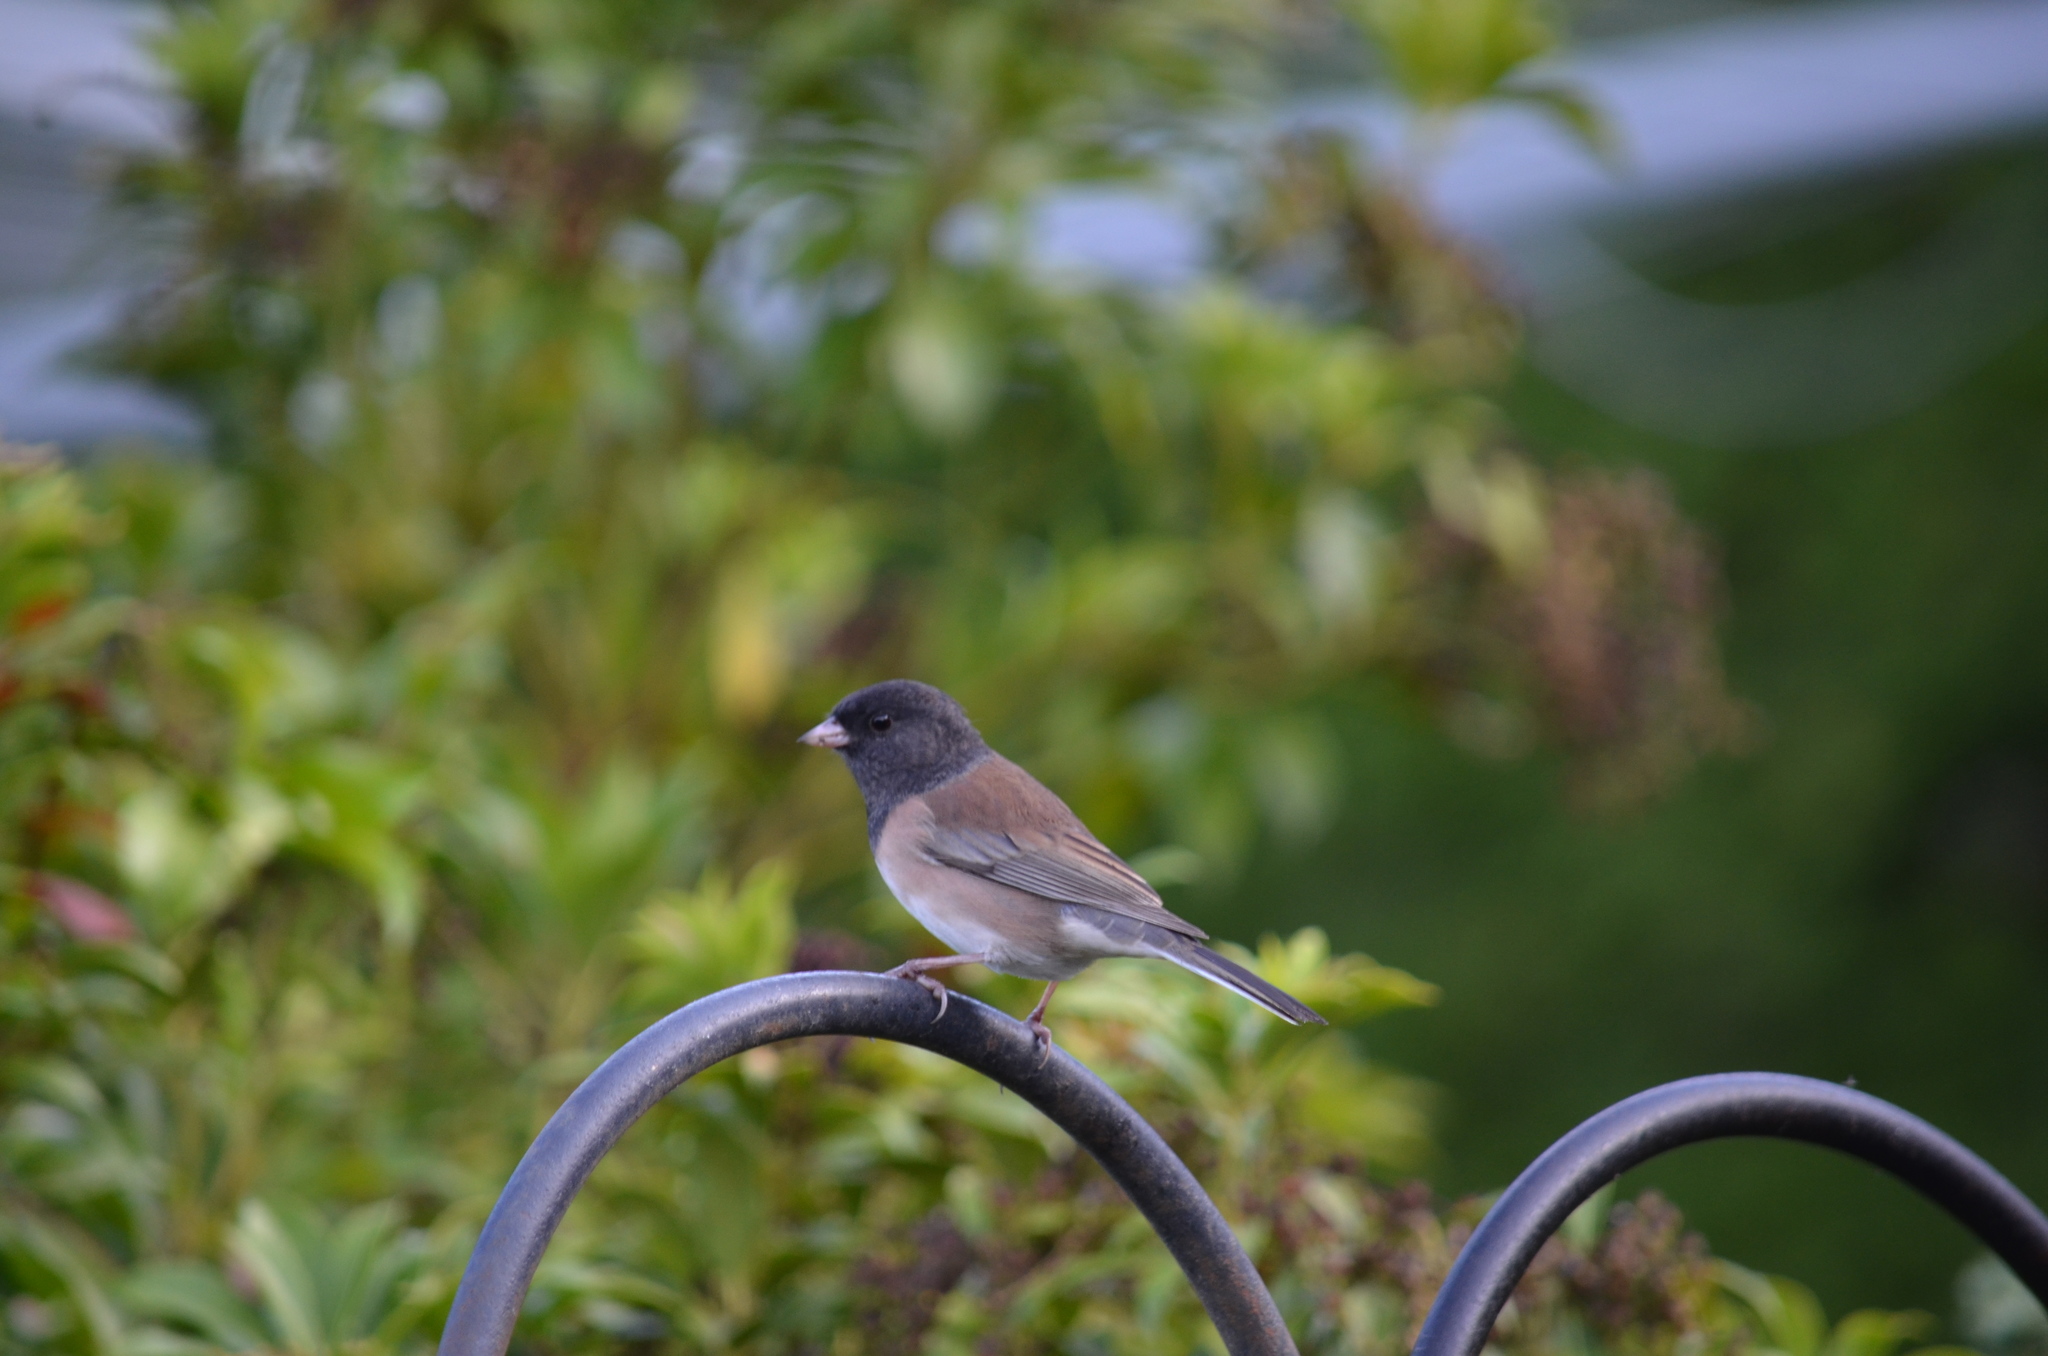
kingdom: Animalia
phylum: Chordata
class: Aves
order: Passeriformes
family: Passerellidae
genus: Junco
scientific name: Junco hyemalis
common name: Dark-eyed junco
